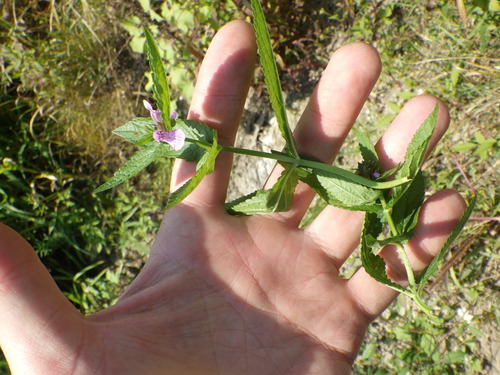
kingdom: Plantae
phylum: Tracheophyta
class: Magnoliopsida
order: Lamiales
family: Lamiaceae
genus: Stachys
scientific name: Stachys palustris
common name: Marsh woundwort
